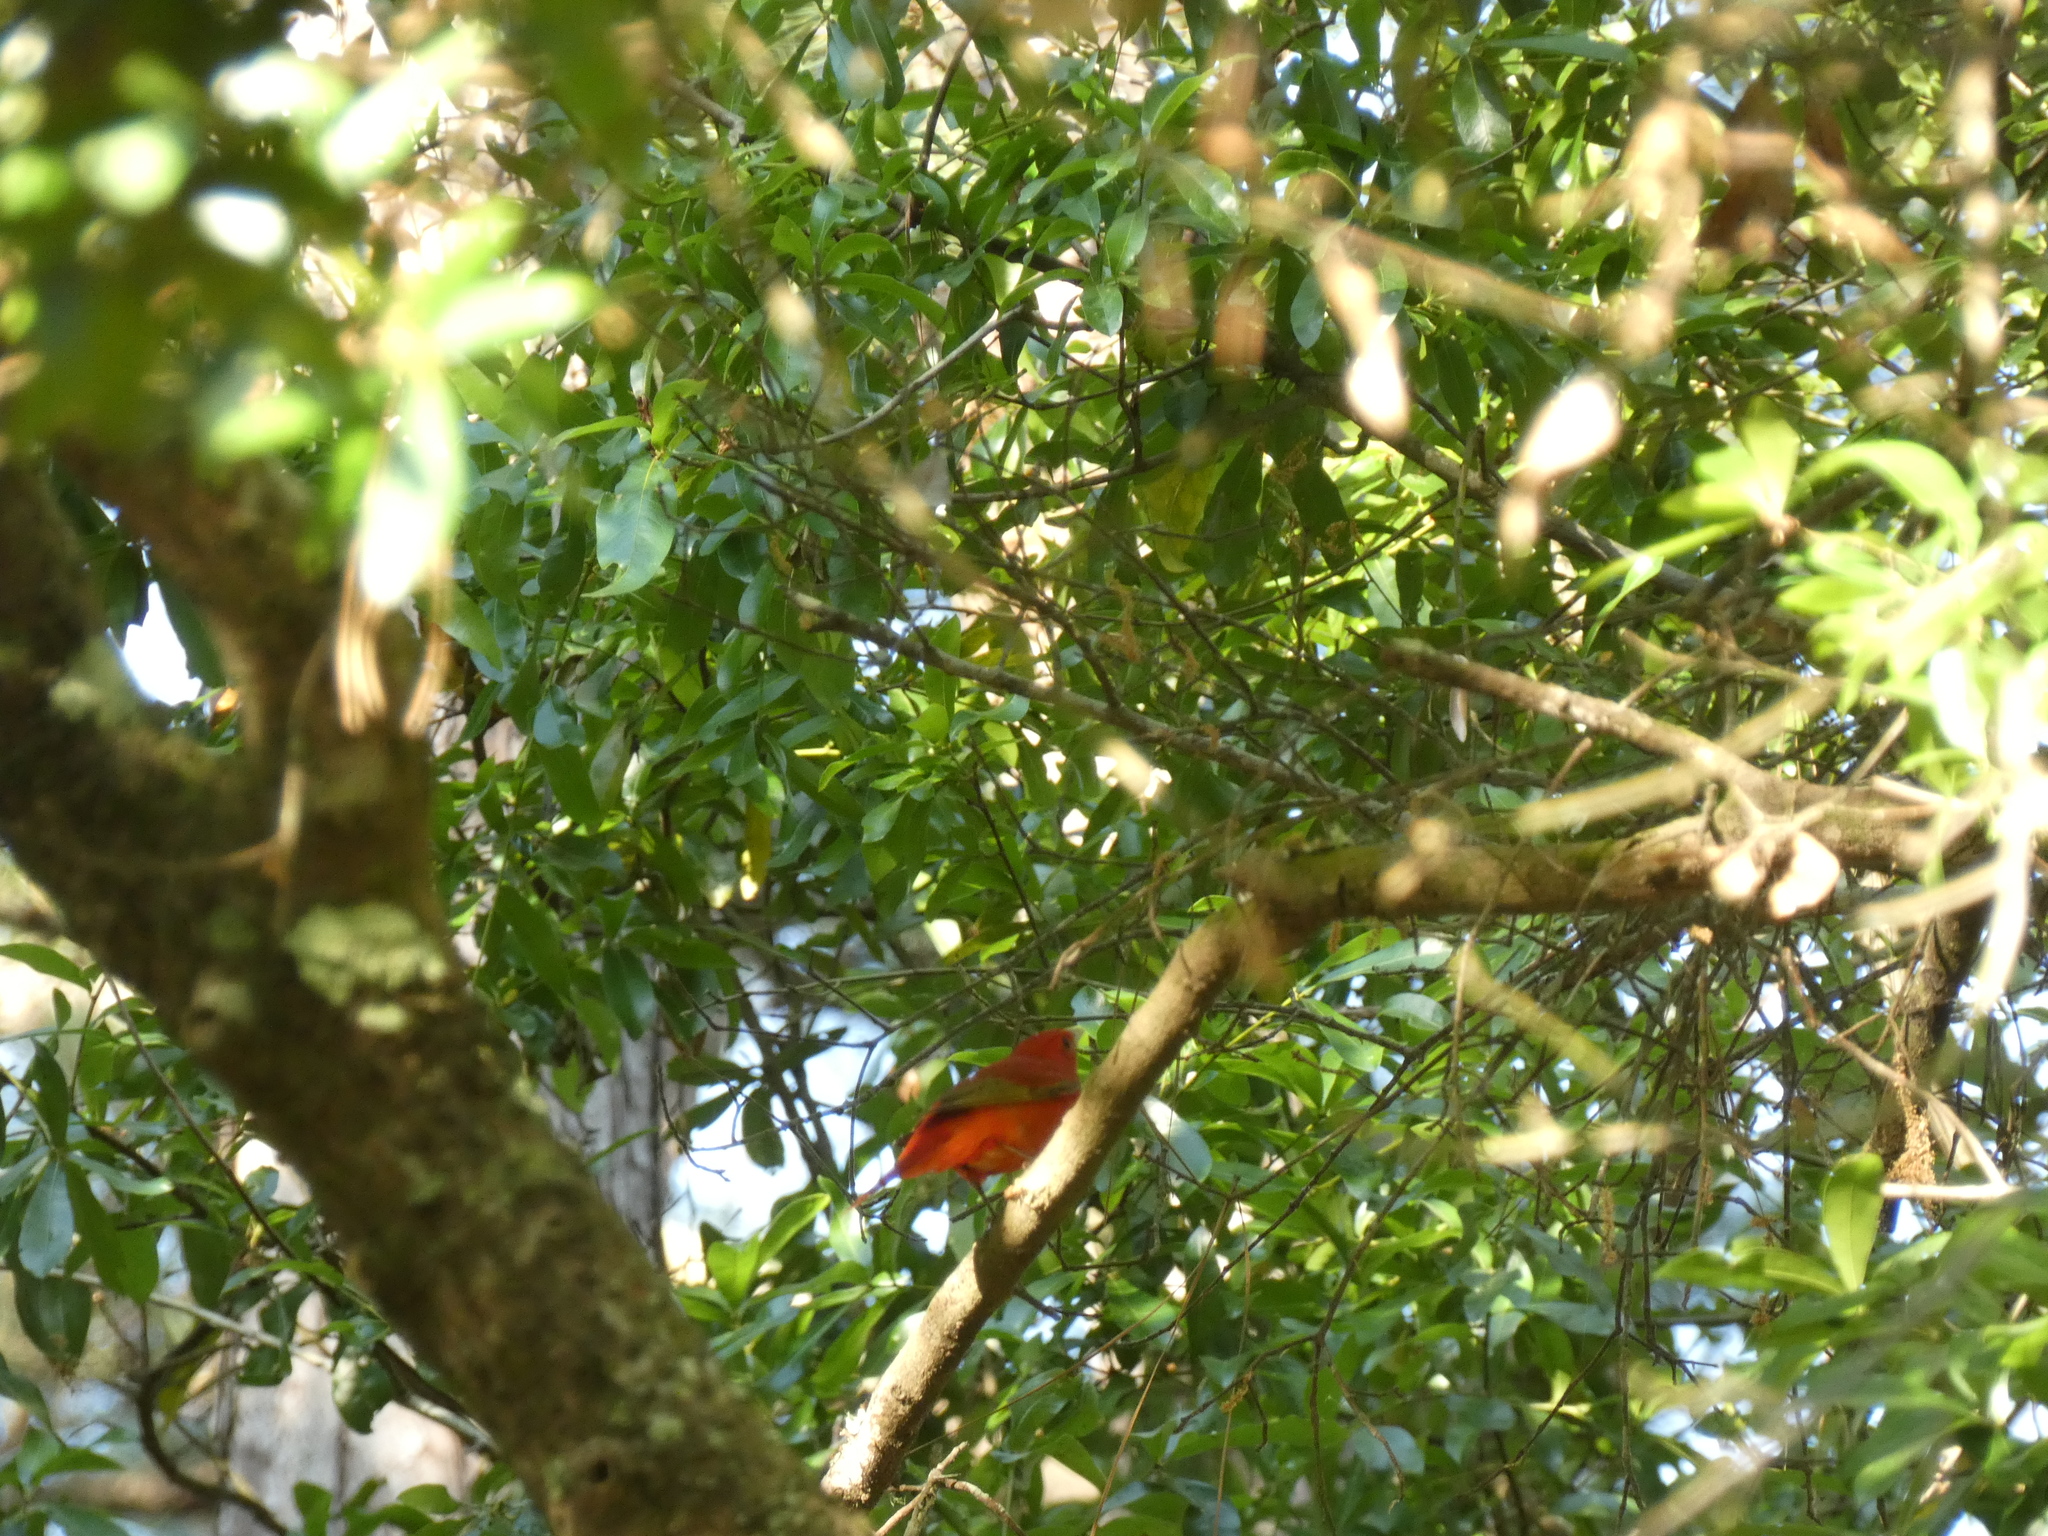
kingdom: Animalia
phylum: Chordata
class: Aves
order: Passeriformes
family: Cardinalidae
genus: Piranga
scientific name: Piranga rubra
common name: Summer tanager
